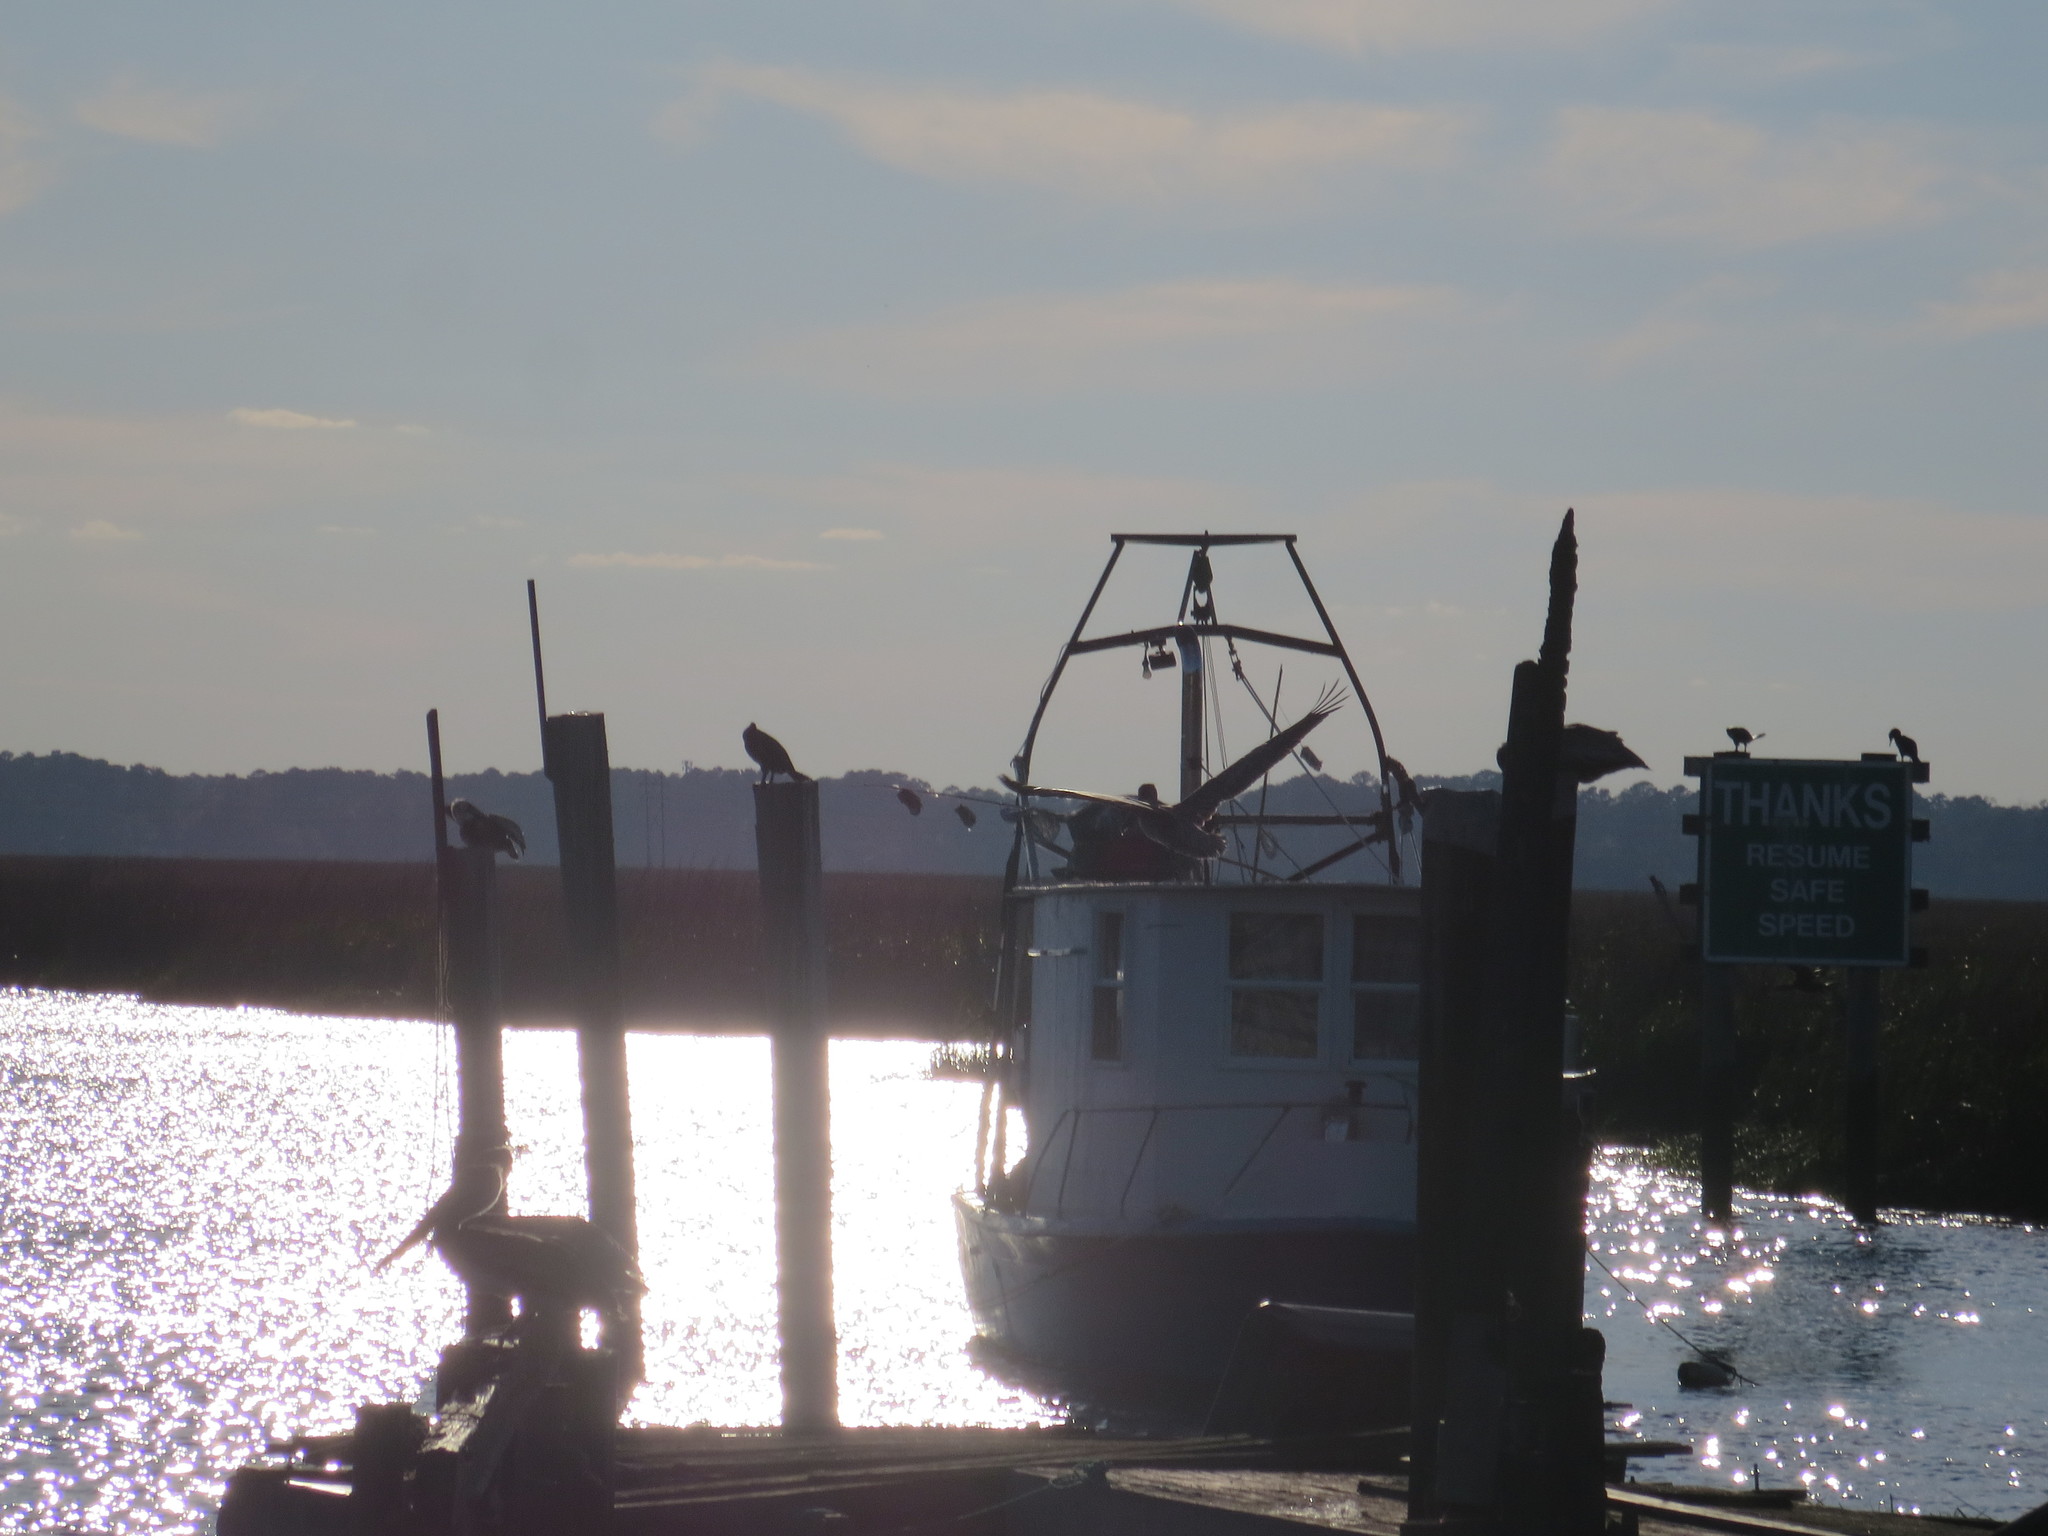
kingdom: Animalia
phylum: Chordata
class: Aves
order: Pelecaniformes
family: Pelecanidae
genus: Pelecanus
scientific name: Pelecanus occidentalis
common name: Brown pelican
